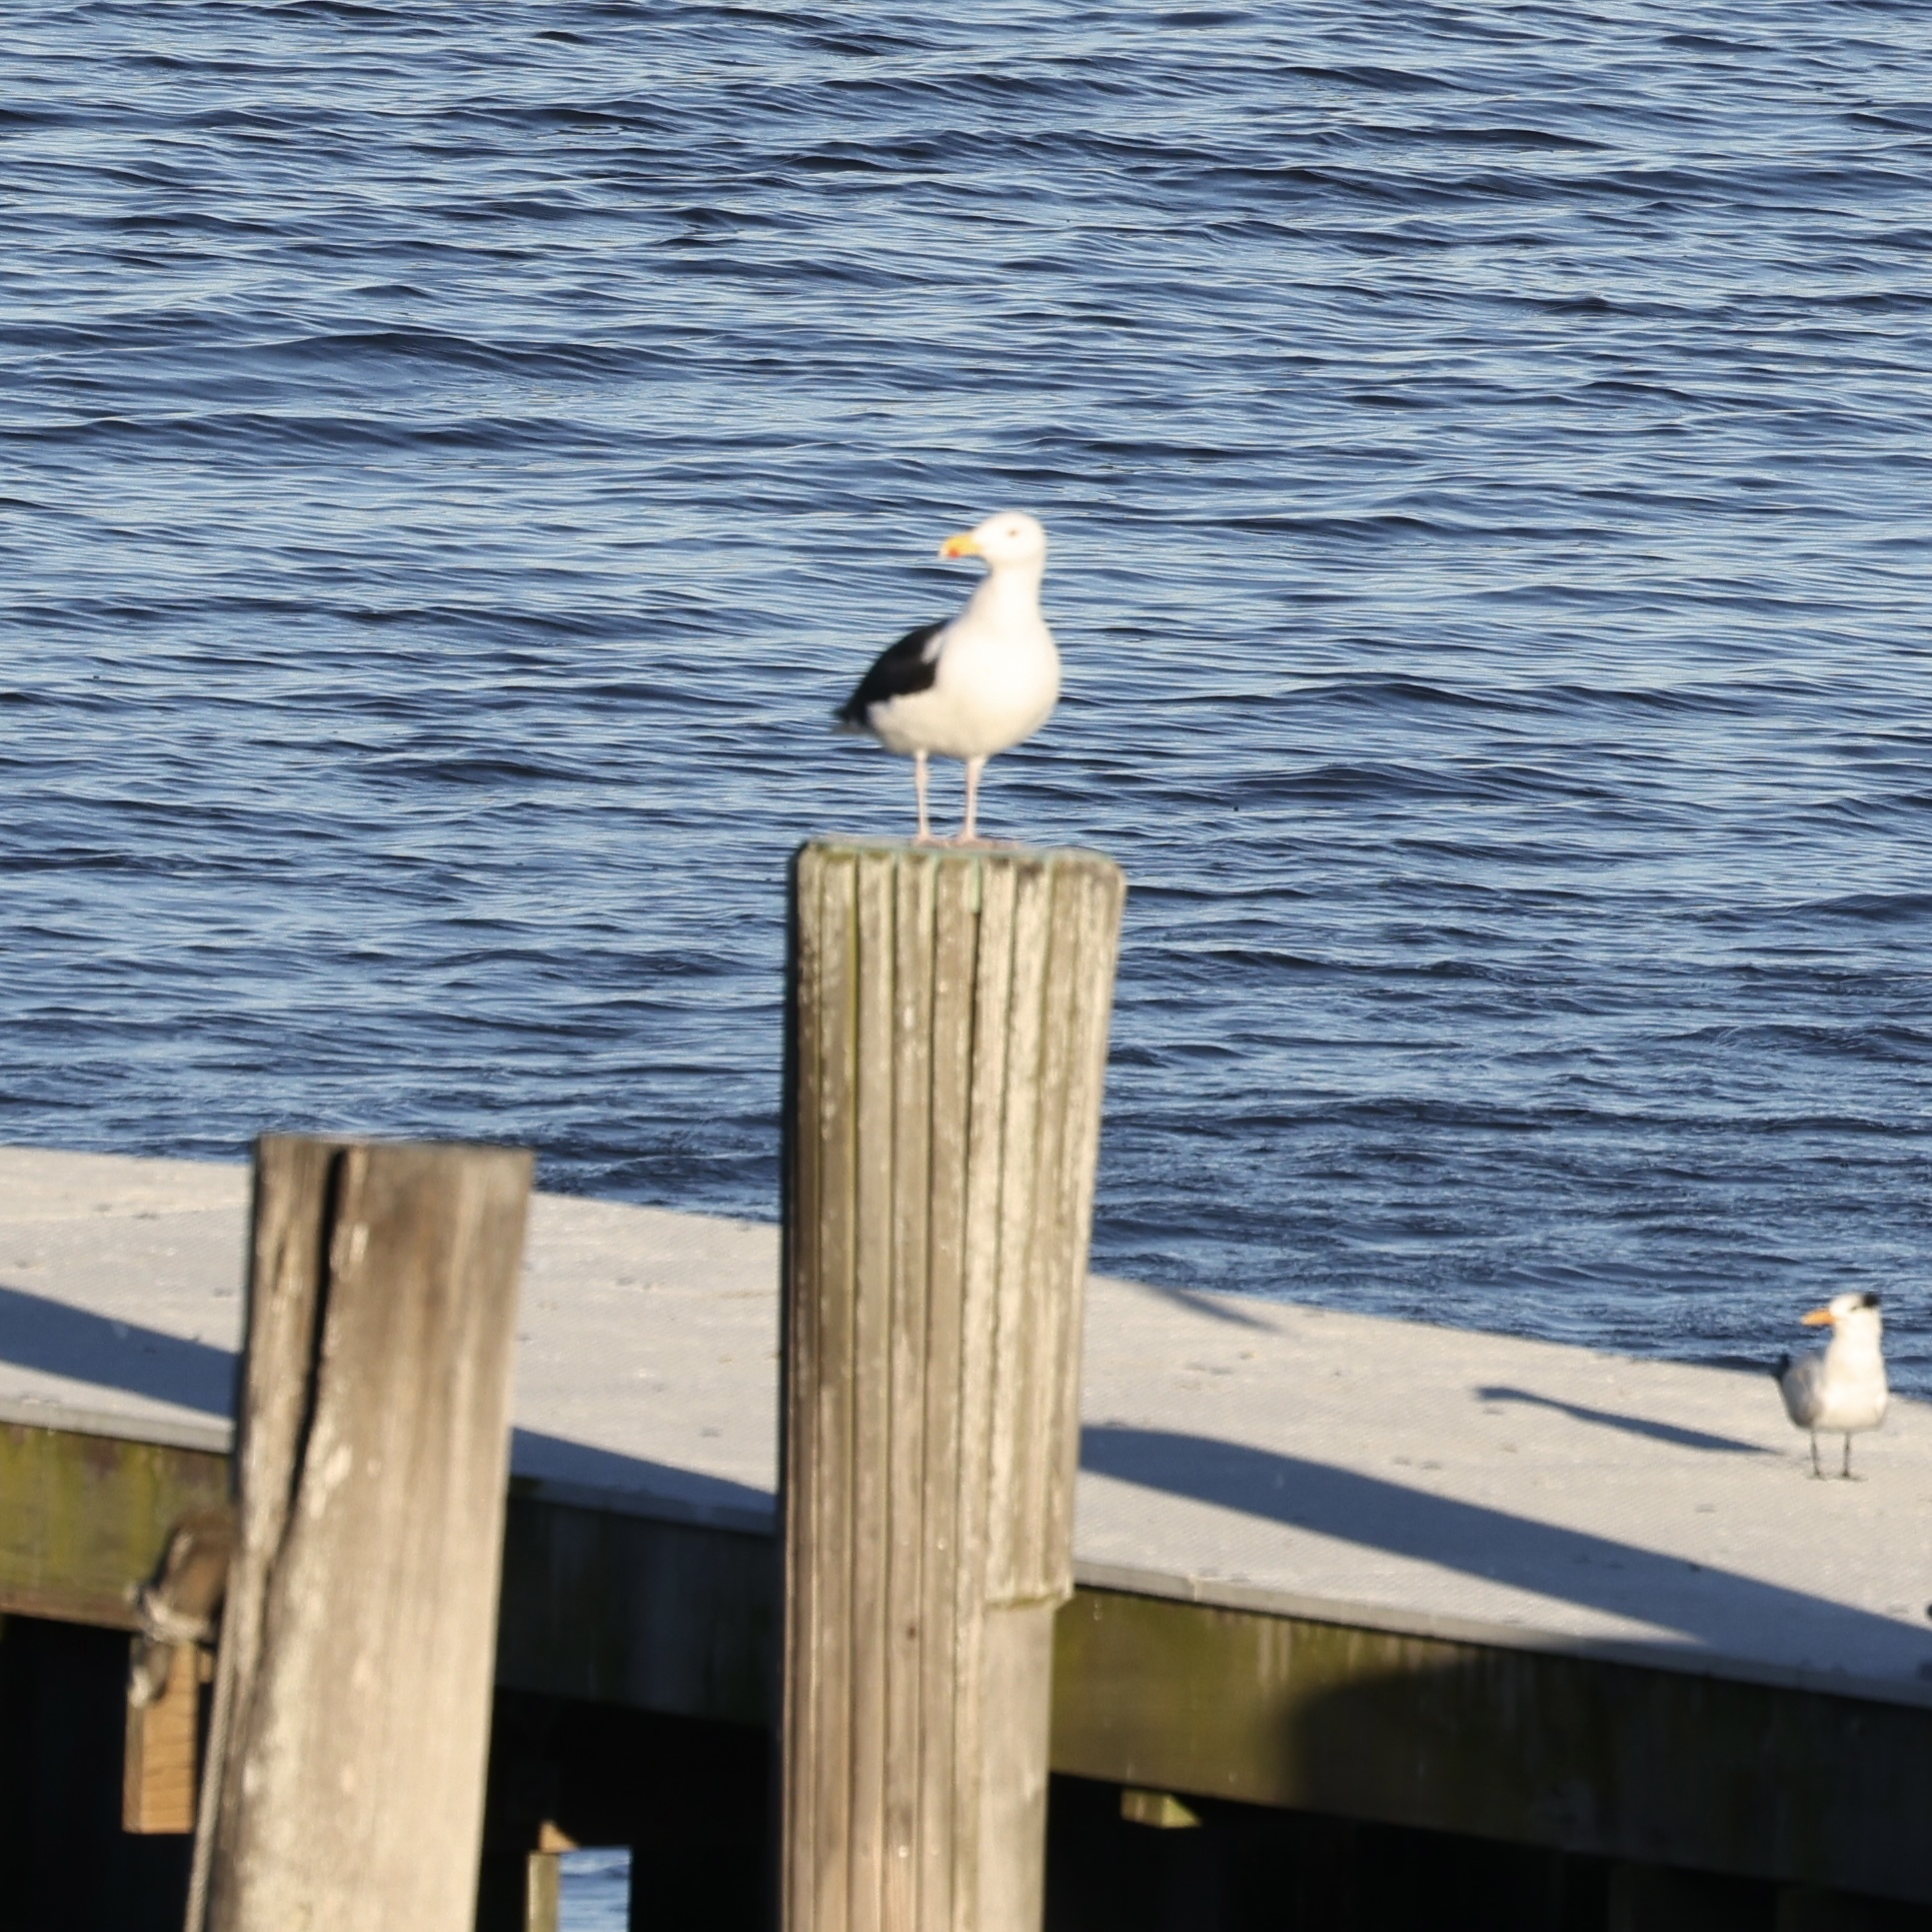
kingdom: Animalia
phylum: Chordata
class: Aves
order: Charadriiformes
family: Laridae
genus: Larus
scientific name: Larus marinus
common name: Great black-backed gull
